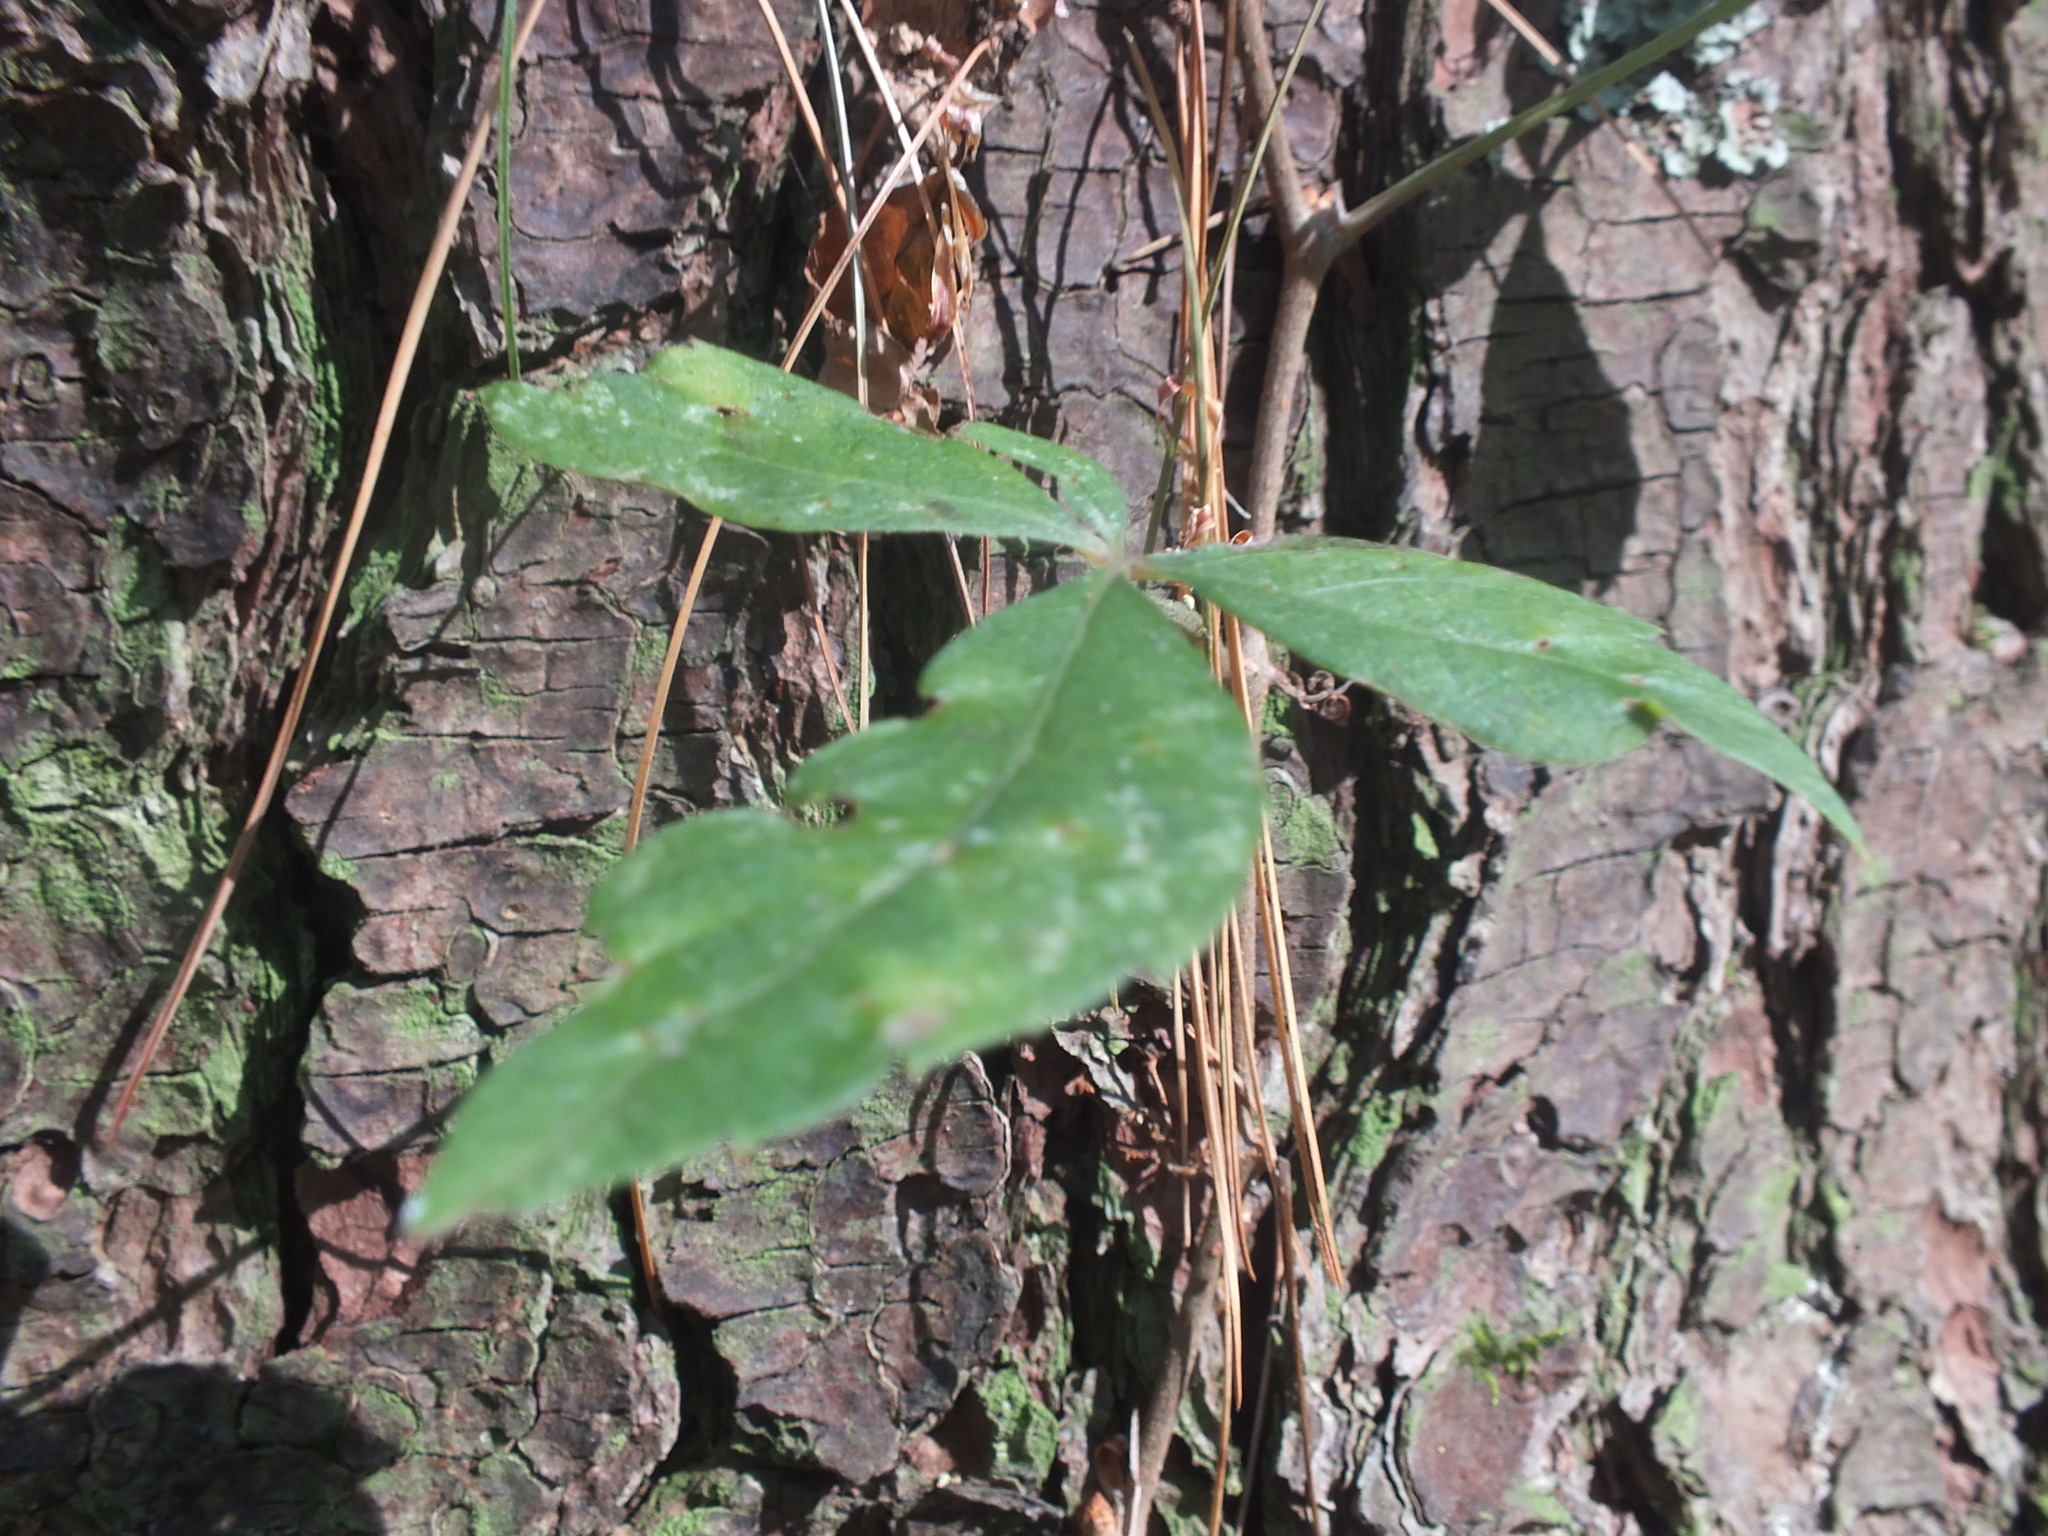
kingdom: Plantae
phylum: Tracheophyta
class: Magnoliopsida
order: Vitales
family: Vitaceae
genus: Parthenocissus
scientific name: Parthenocissus quinquefolia
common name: Virginia-creeper
